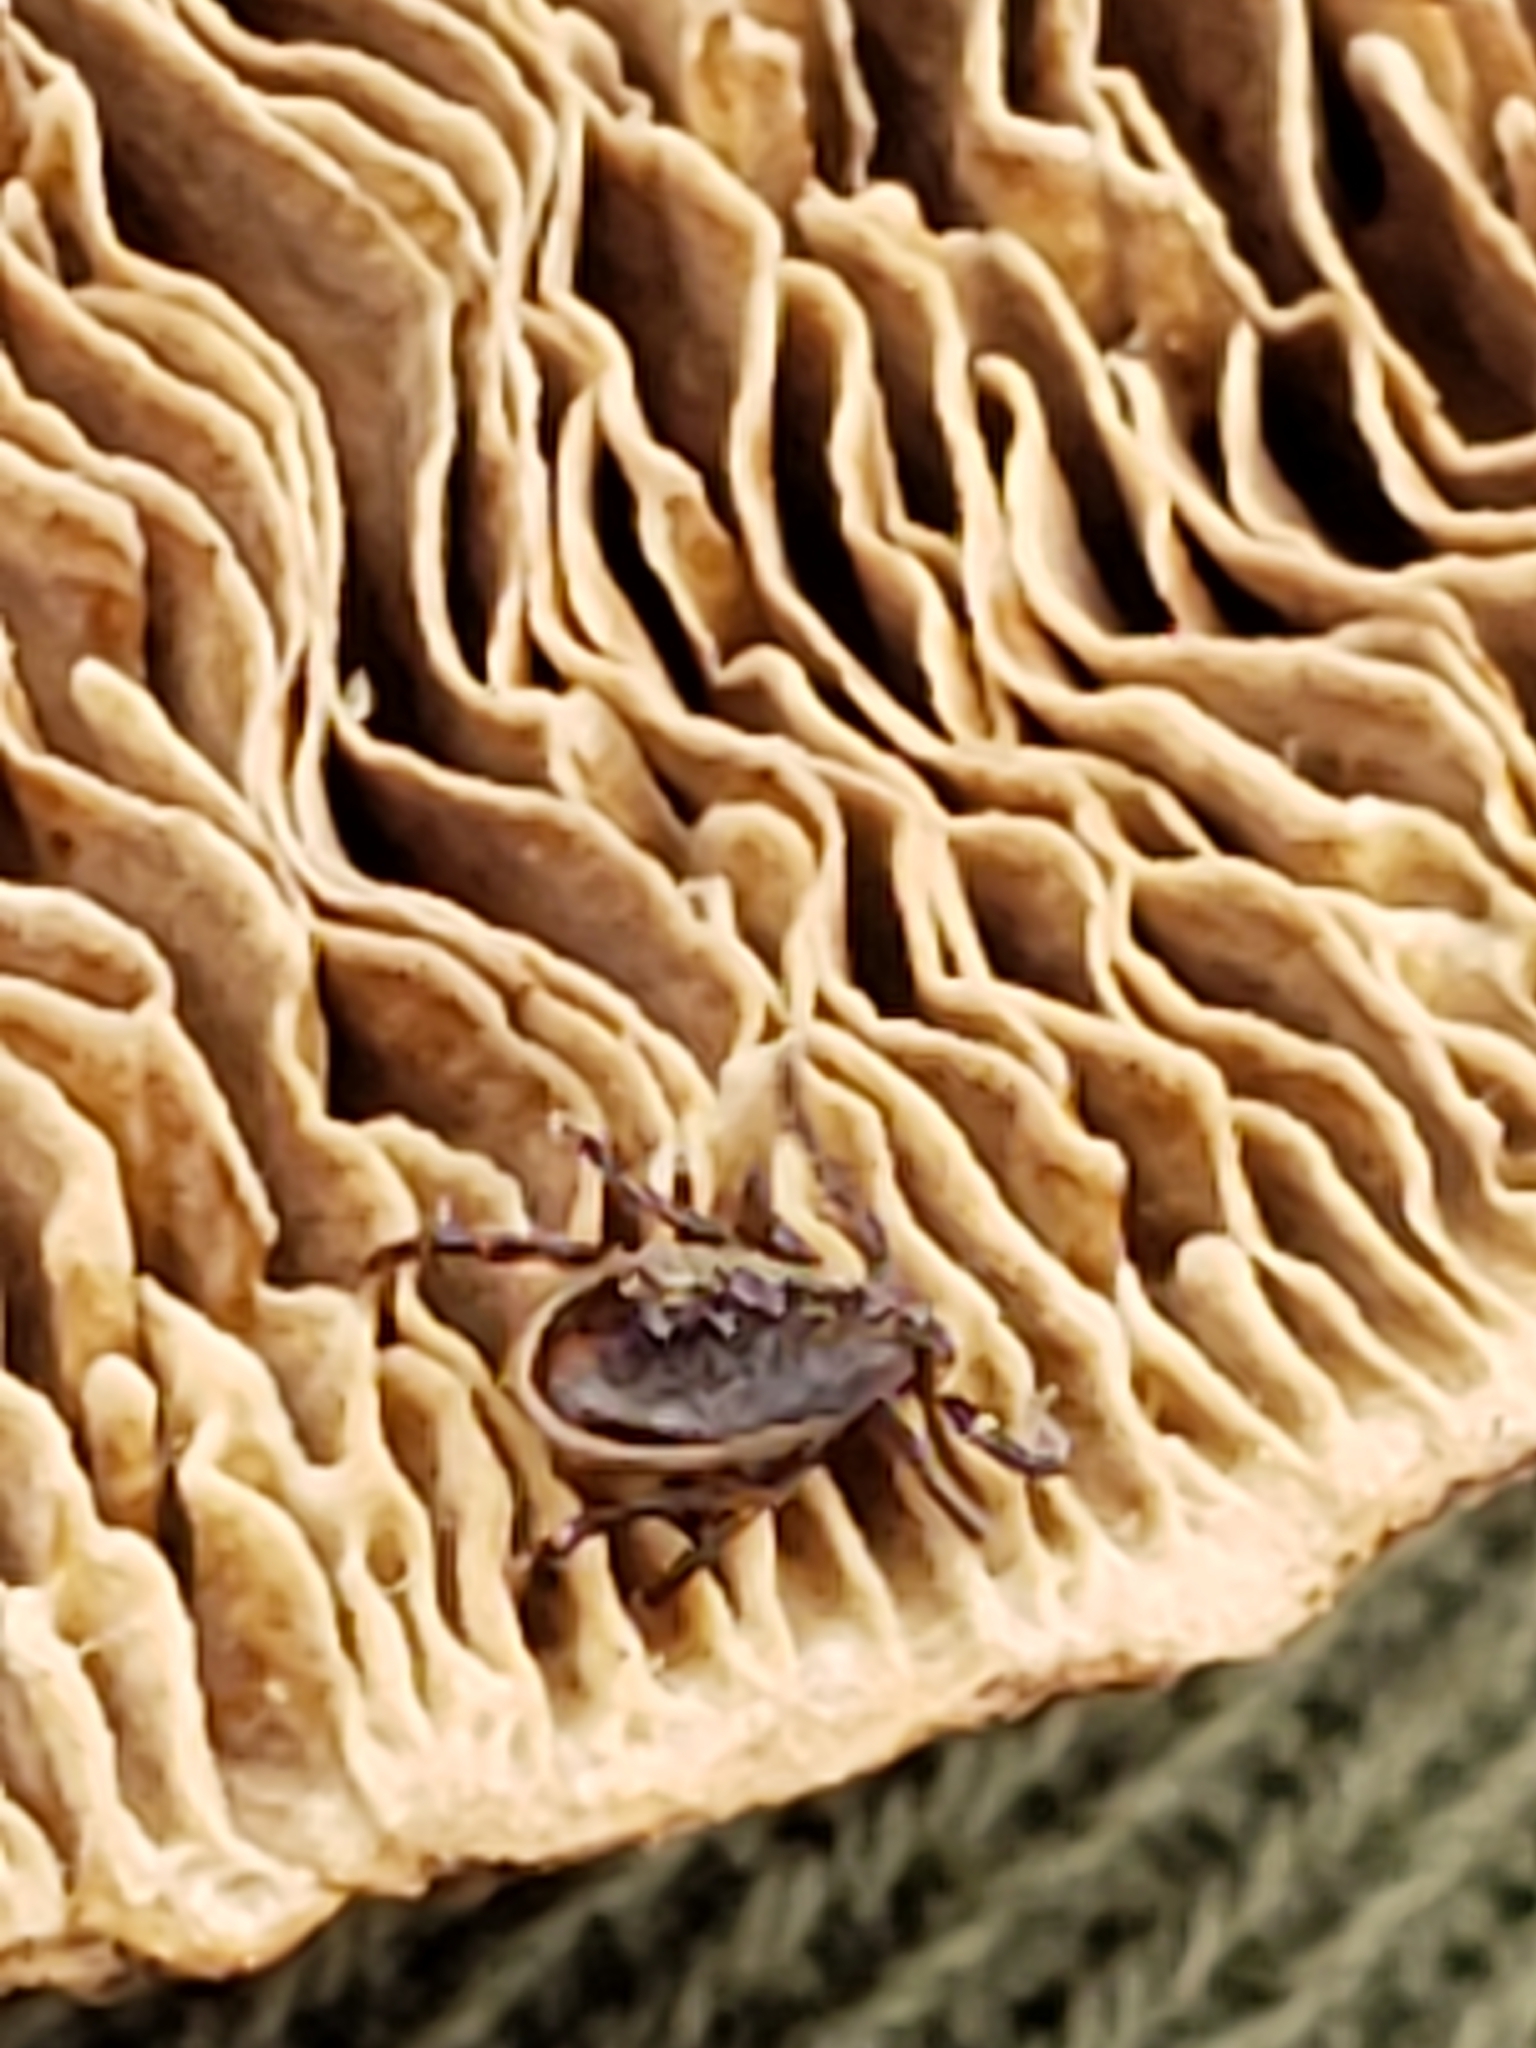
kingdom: Animalia
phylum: Arthropoda
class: Arachnida
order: Ixodida
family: Ixodidae
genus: Ixodes
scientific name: Ixodes scapularis
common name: Black legged tick
